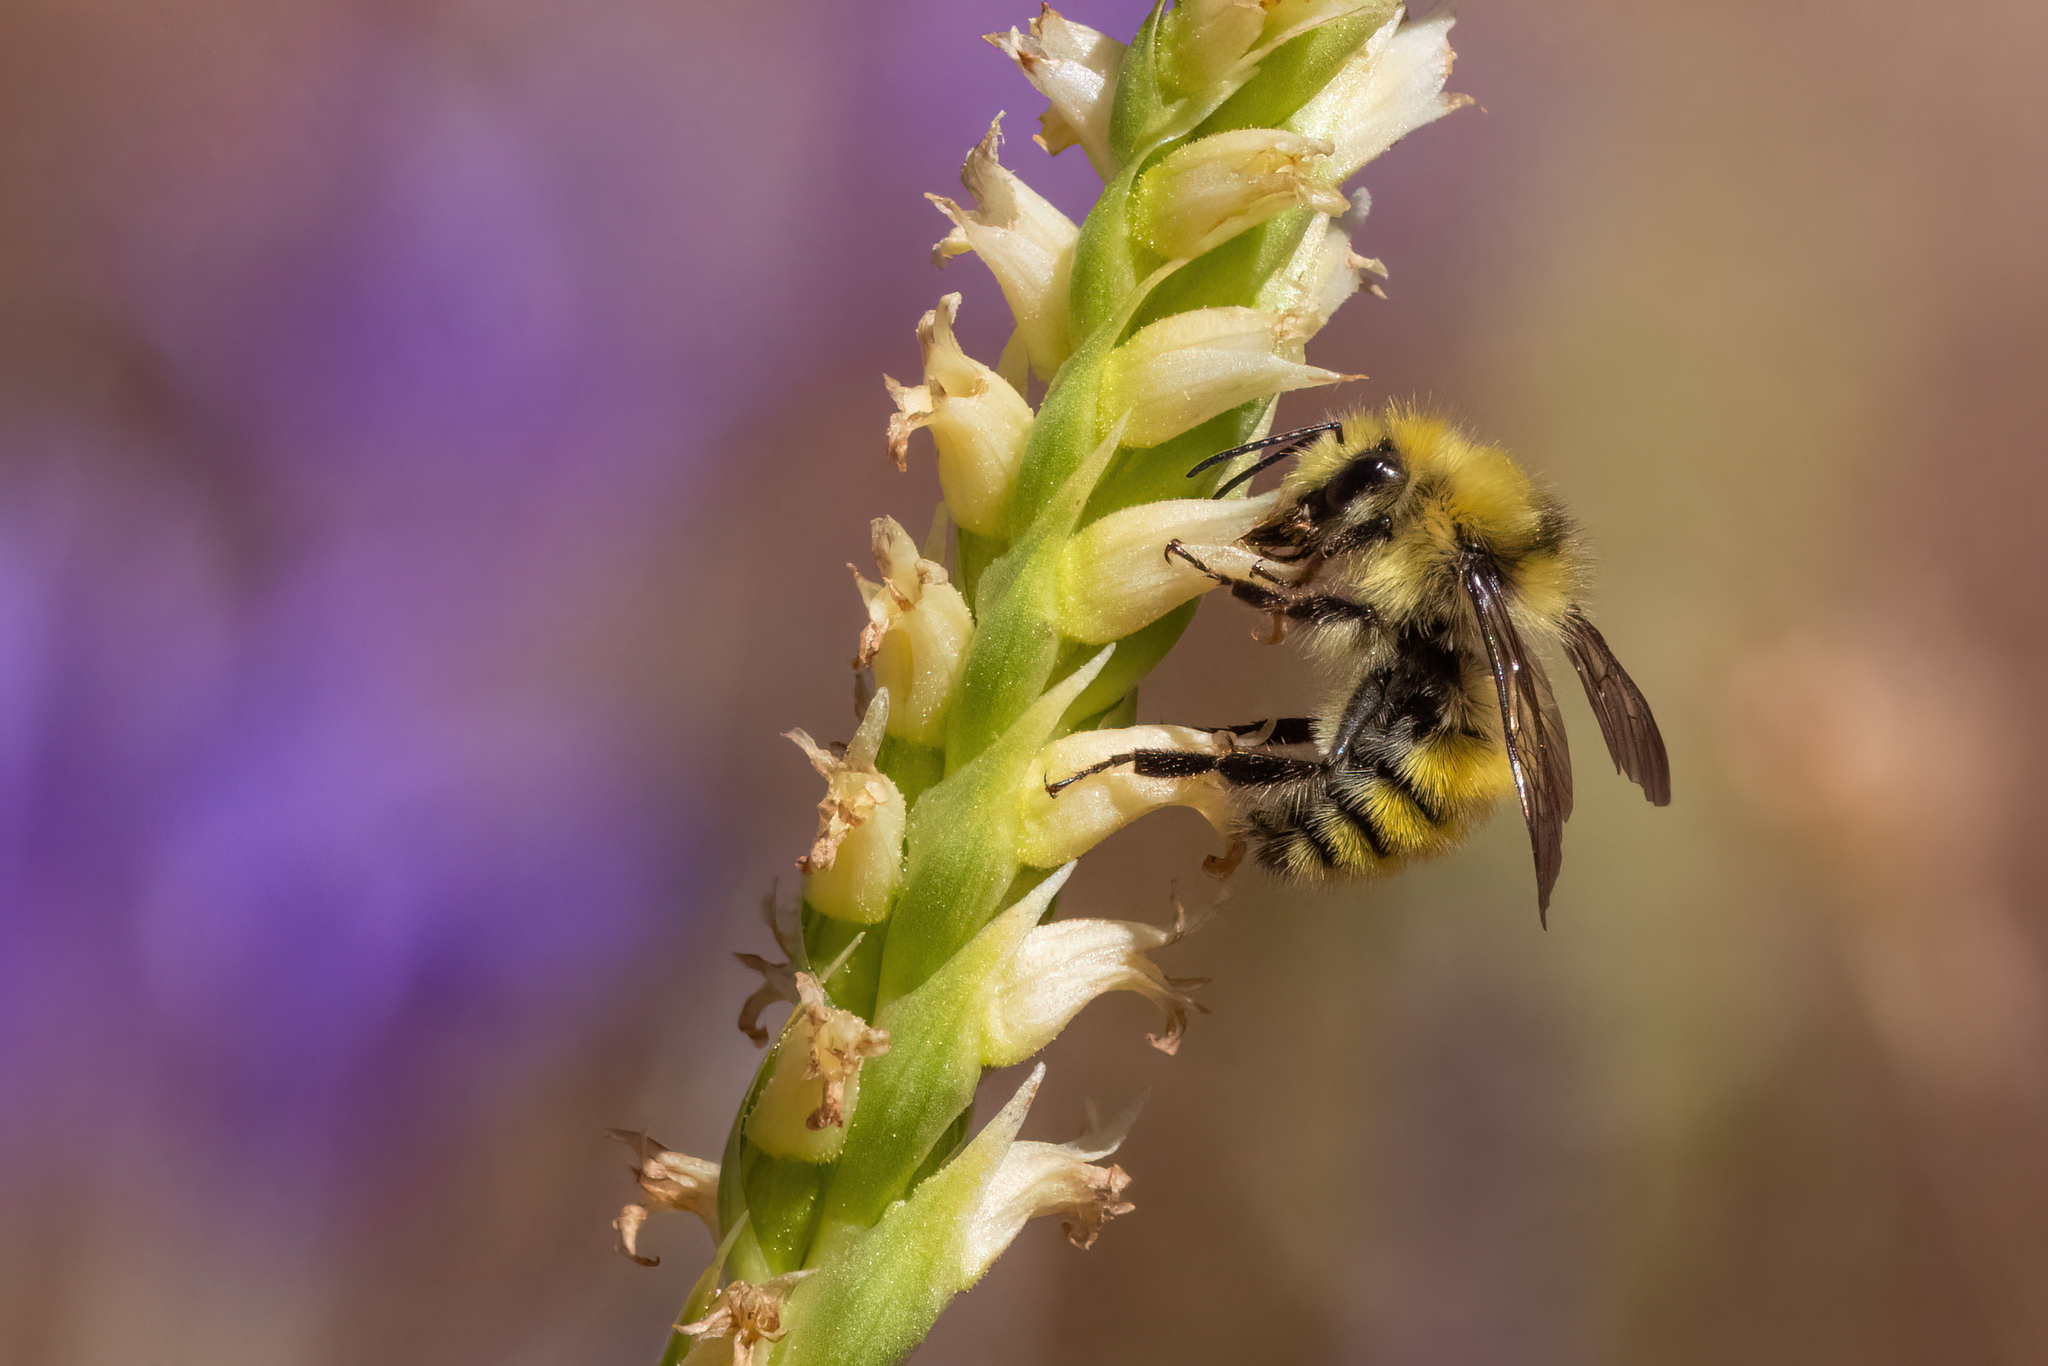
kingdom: Animalia
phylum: Arthropoda
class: Insecta
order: Hymenoptera
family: Apidae
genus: Bombus
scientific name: Bombus vandykei
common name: Van dyke bumble bee
